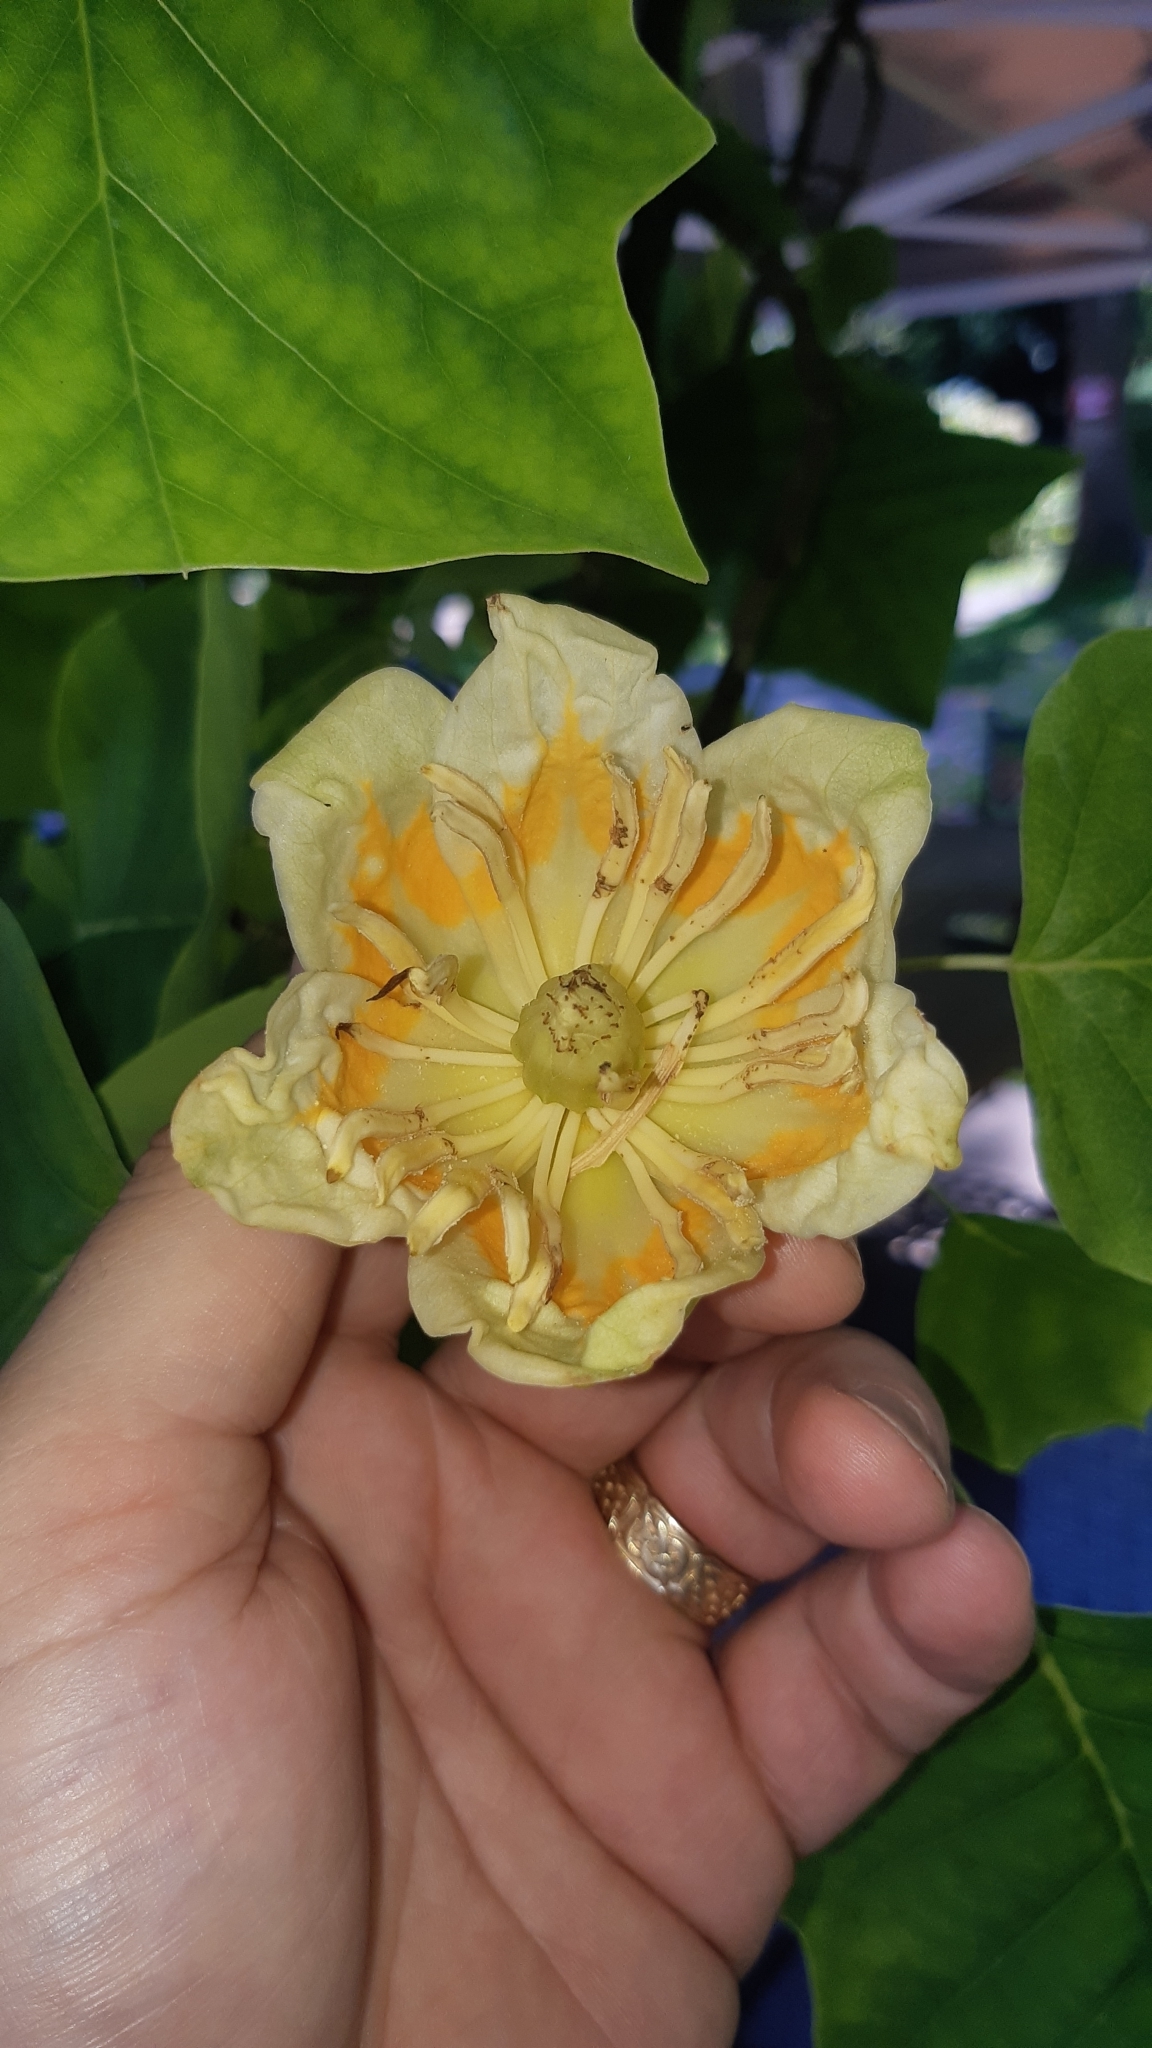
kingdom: Plantae
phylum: Tracheophyta
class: Magnoliopsida
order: Magnoliales
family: Magnoliaceae
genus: Liriodendron
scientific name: Liriodendron tulipifera
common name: Tulip tree
